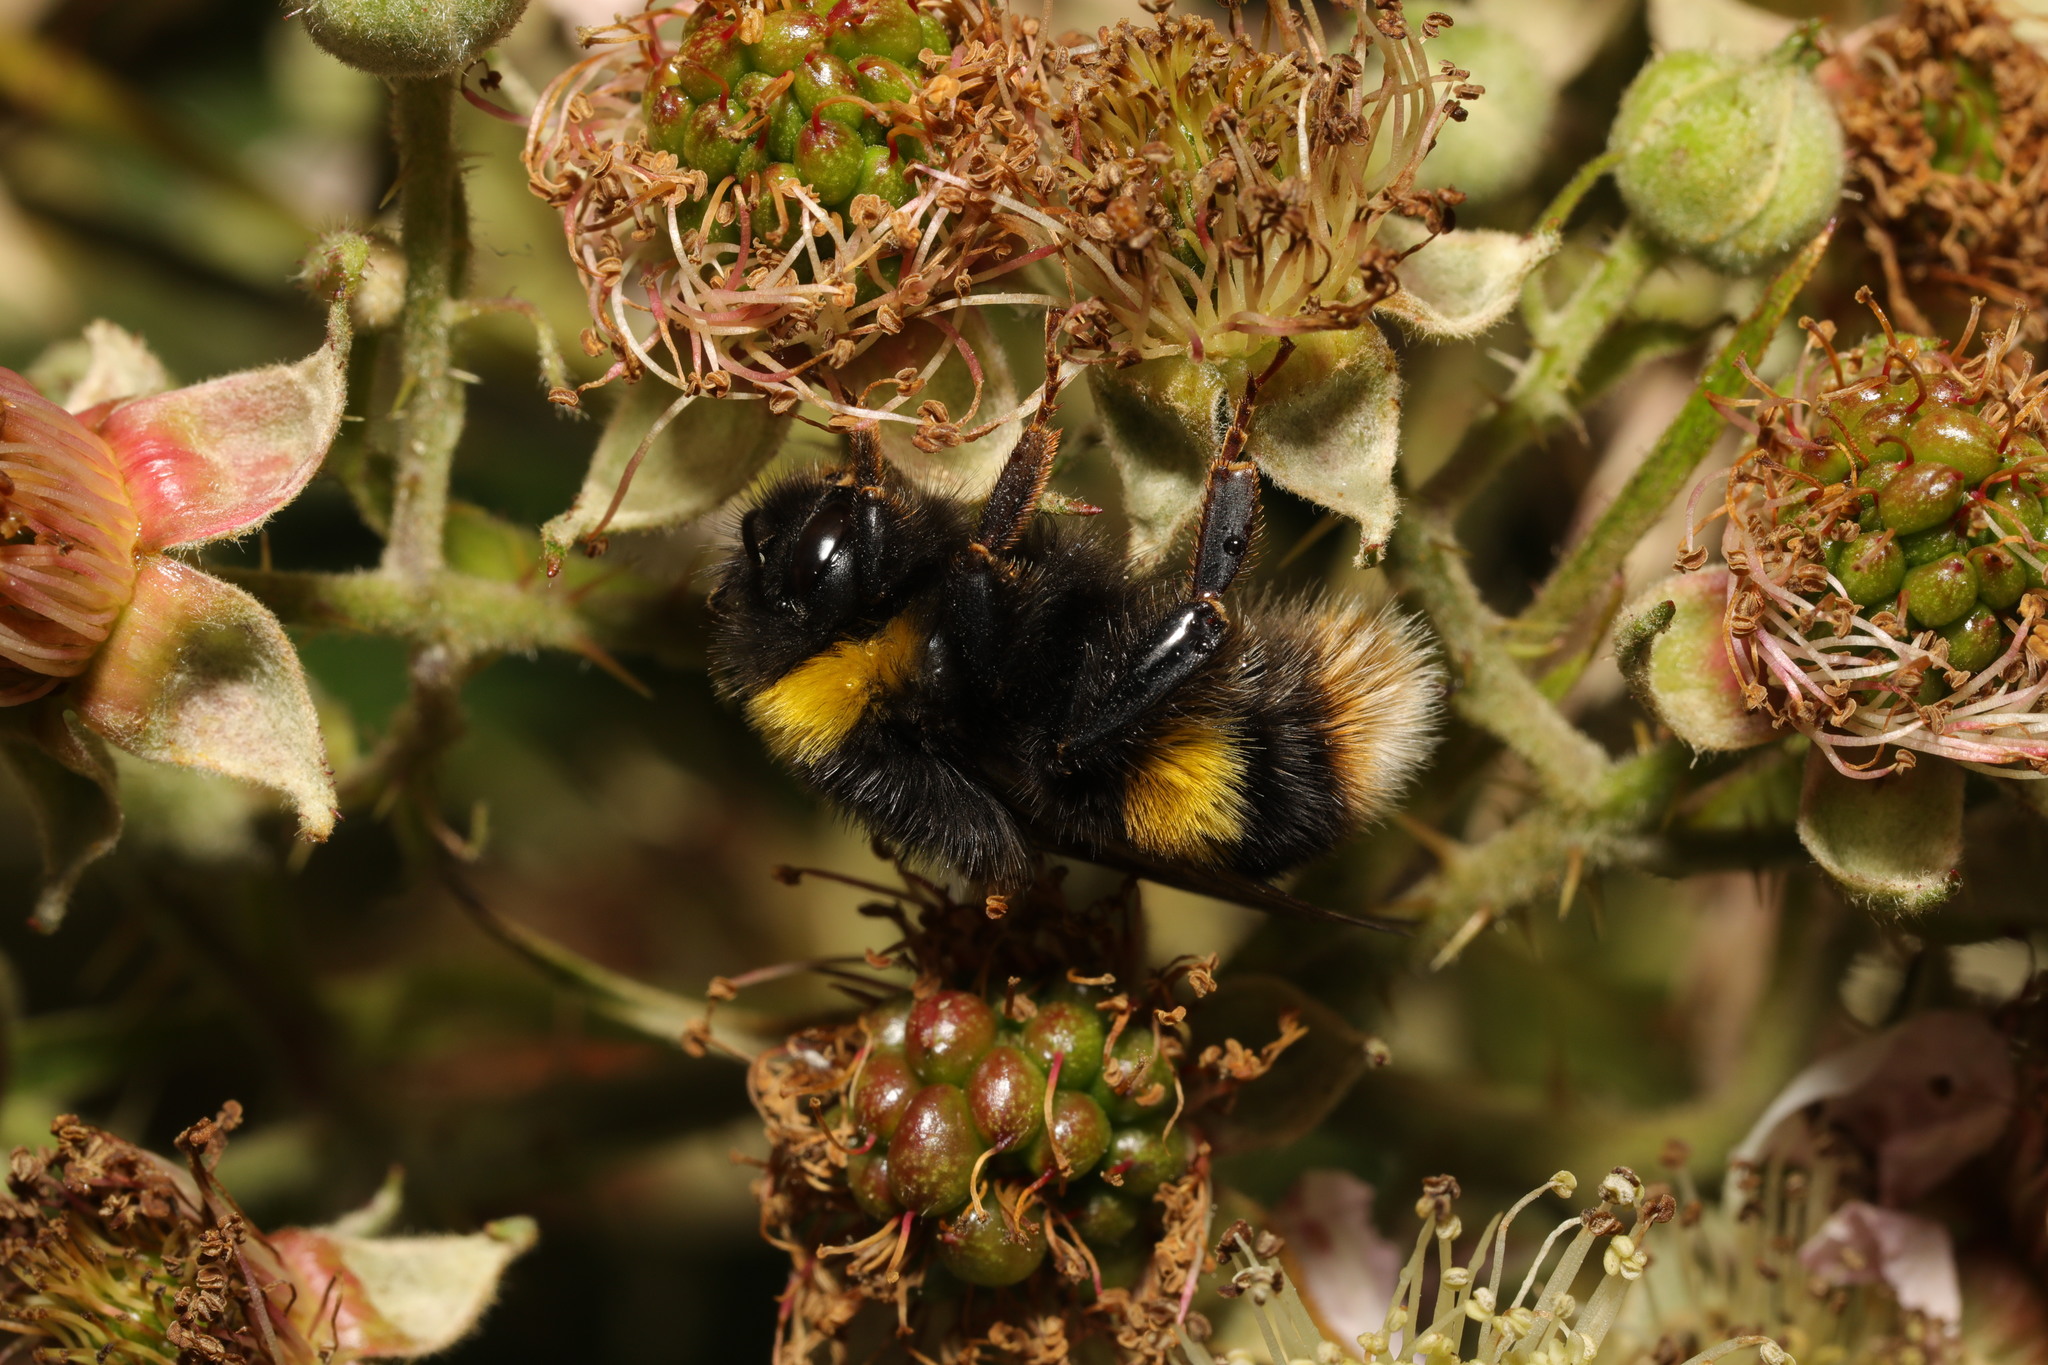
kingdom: Animalia
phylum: Arthropoda
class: Insecta
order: Hymenoptera
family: Apidae
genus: Bombus
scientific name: Bombus terrestris
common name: Buff-tailed bumblebee
